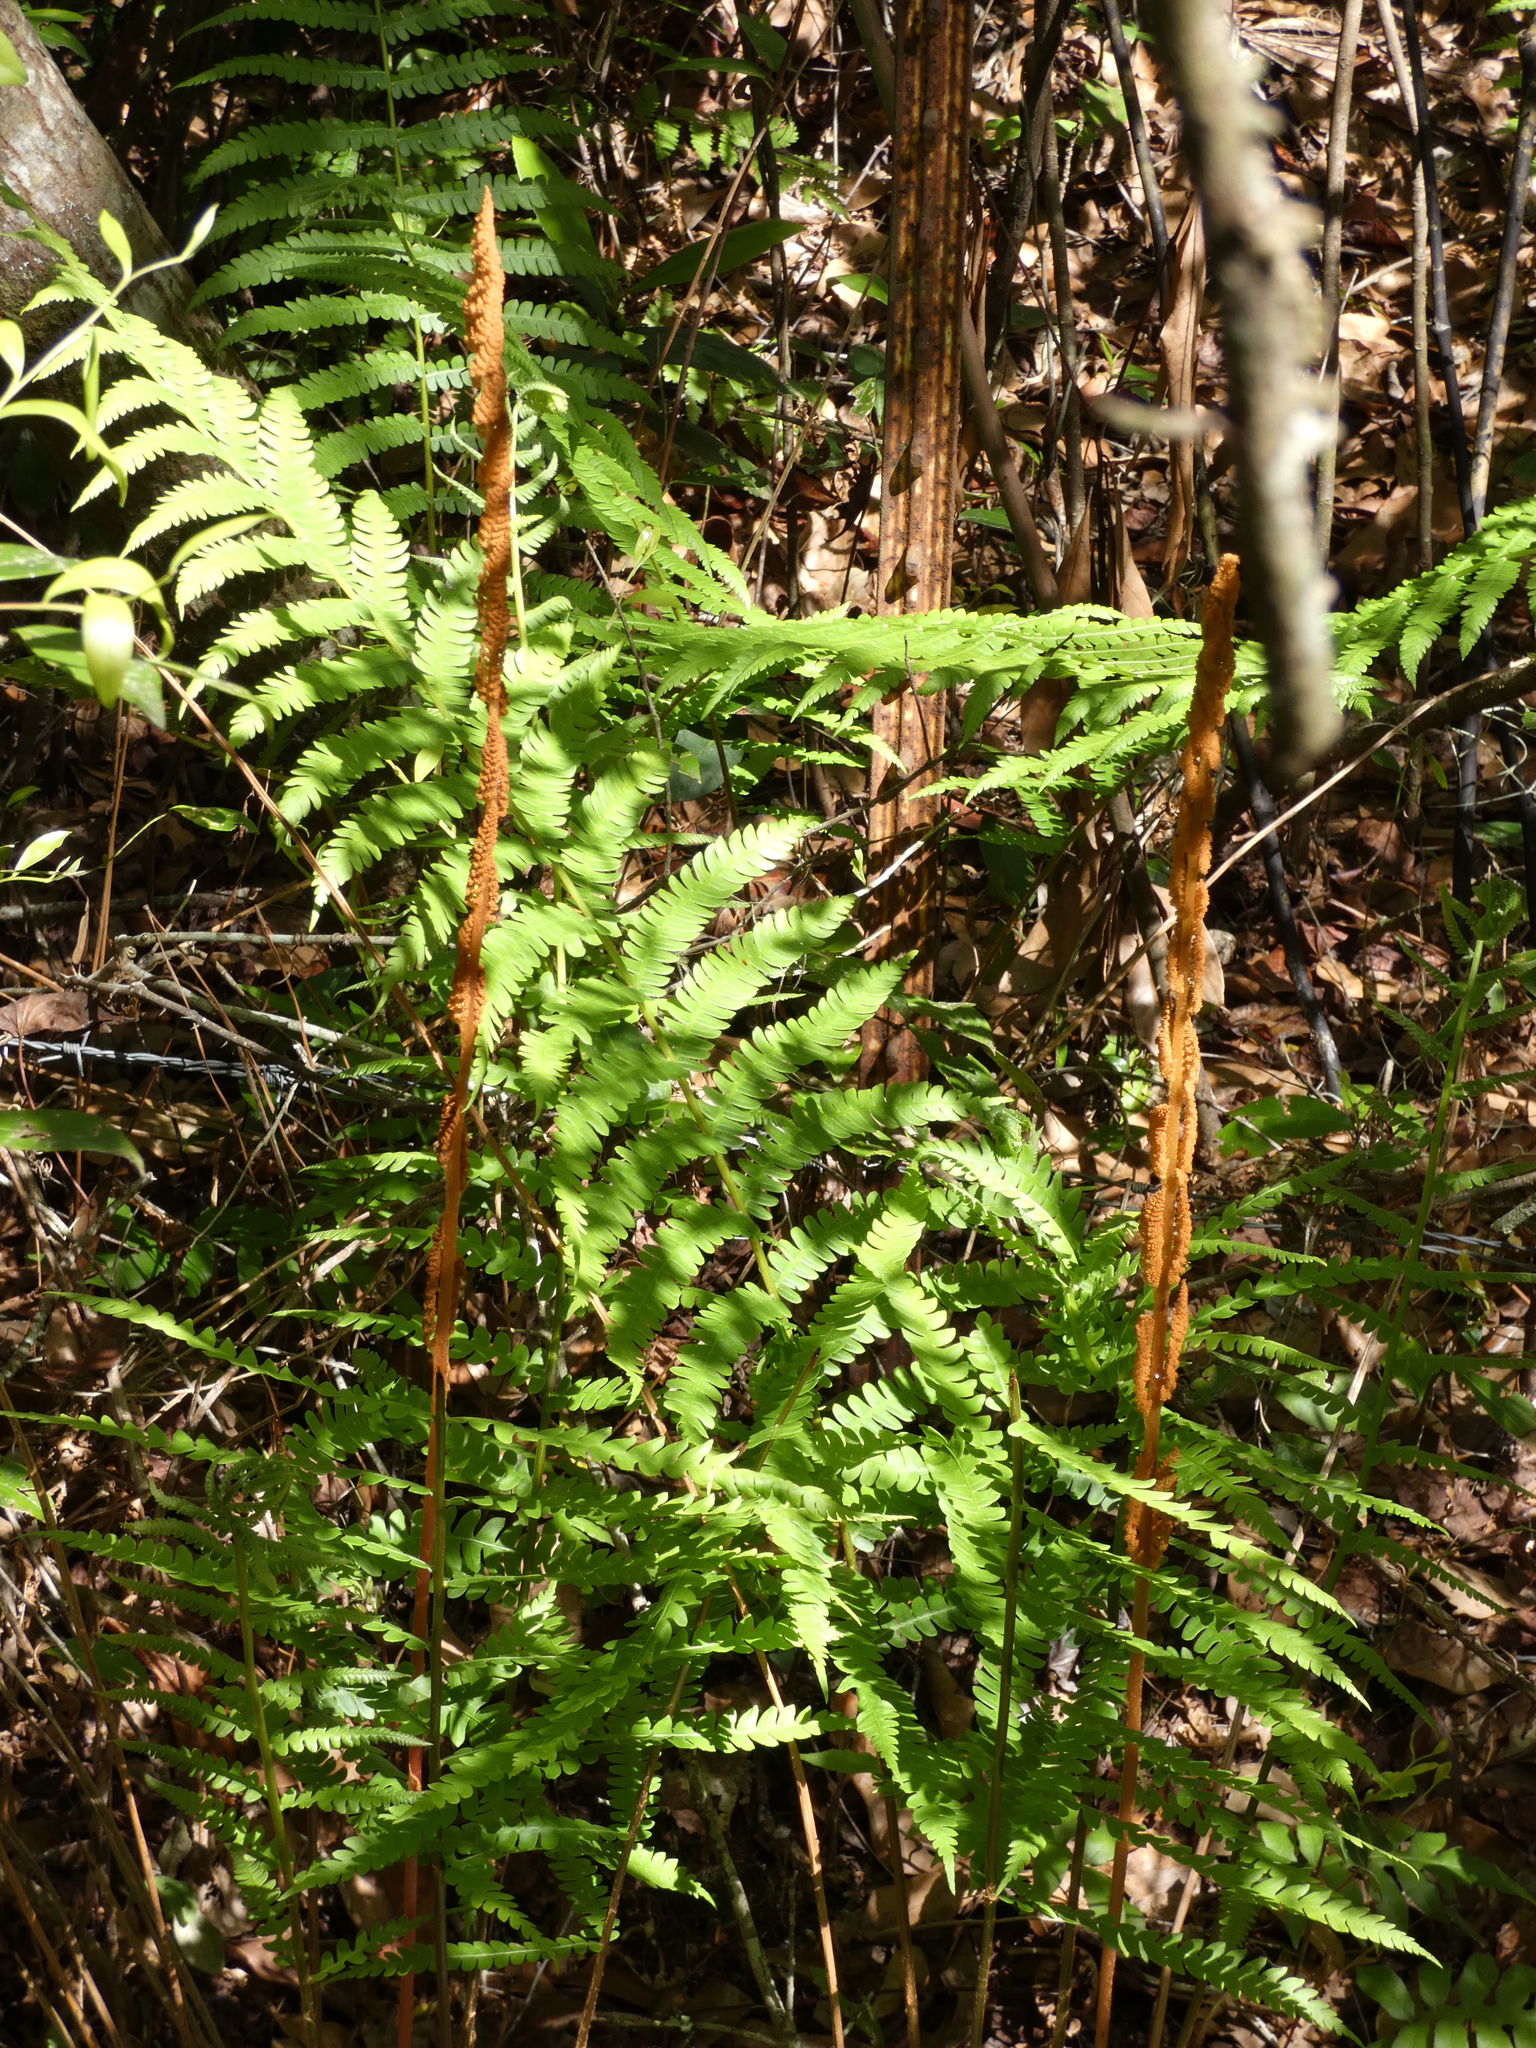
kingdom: Plantae
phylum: Tracheophyta
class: Polypodiopsida
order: Osmundales
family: Osmundaceae
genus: Osmundastrum
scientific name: Osmundastrum cinnamomeum
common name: Cinnamon fern
